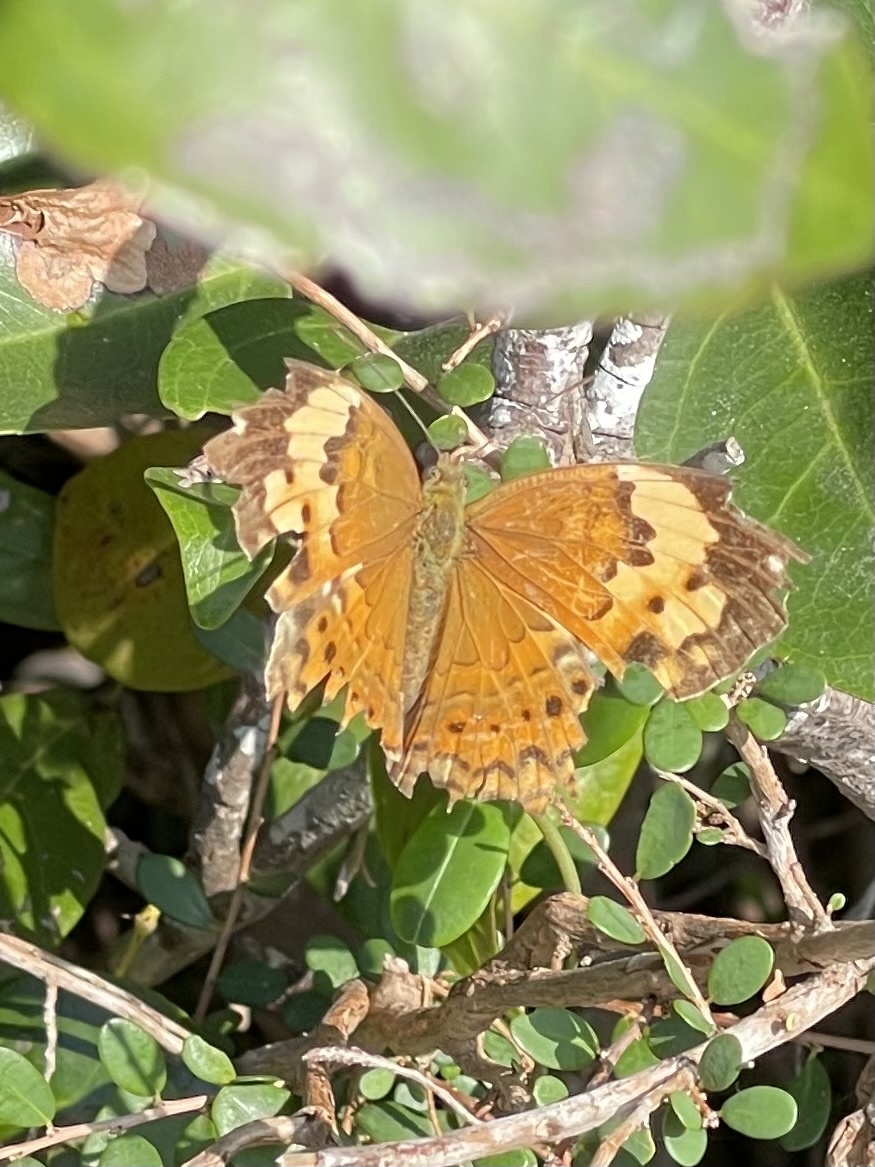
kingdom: Animalia
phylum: Arthropoda
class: Insecta
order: Lepidoptera
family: Nymphalidae
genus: Cupha
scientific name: Cupha erymanthis
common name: Rustic
